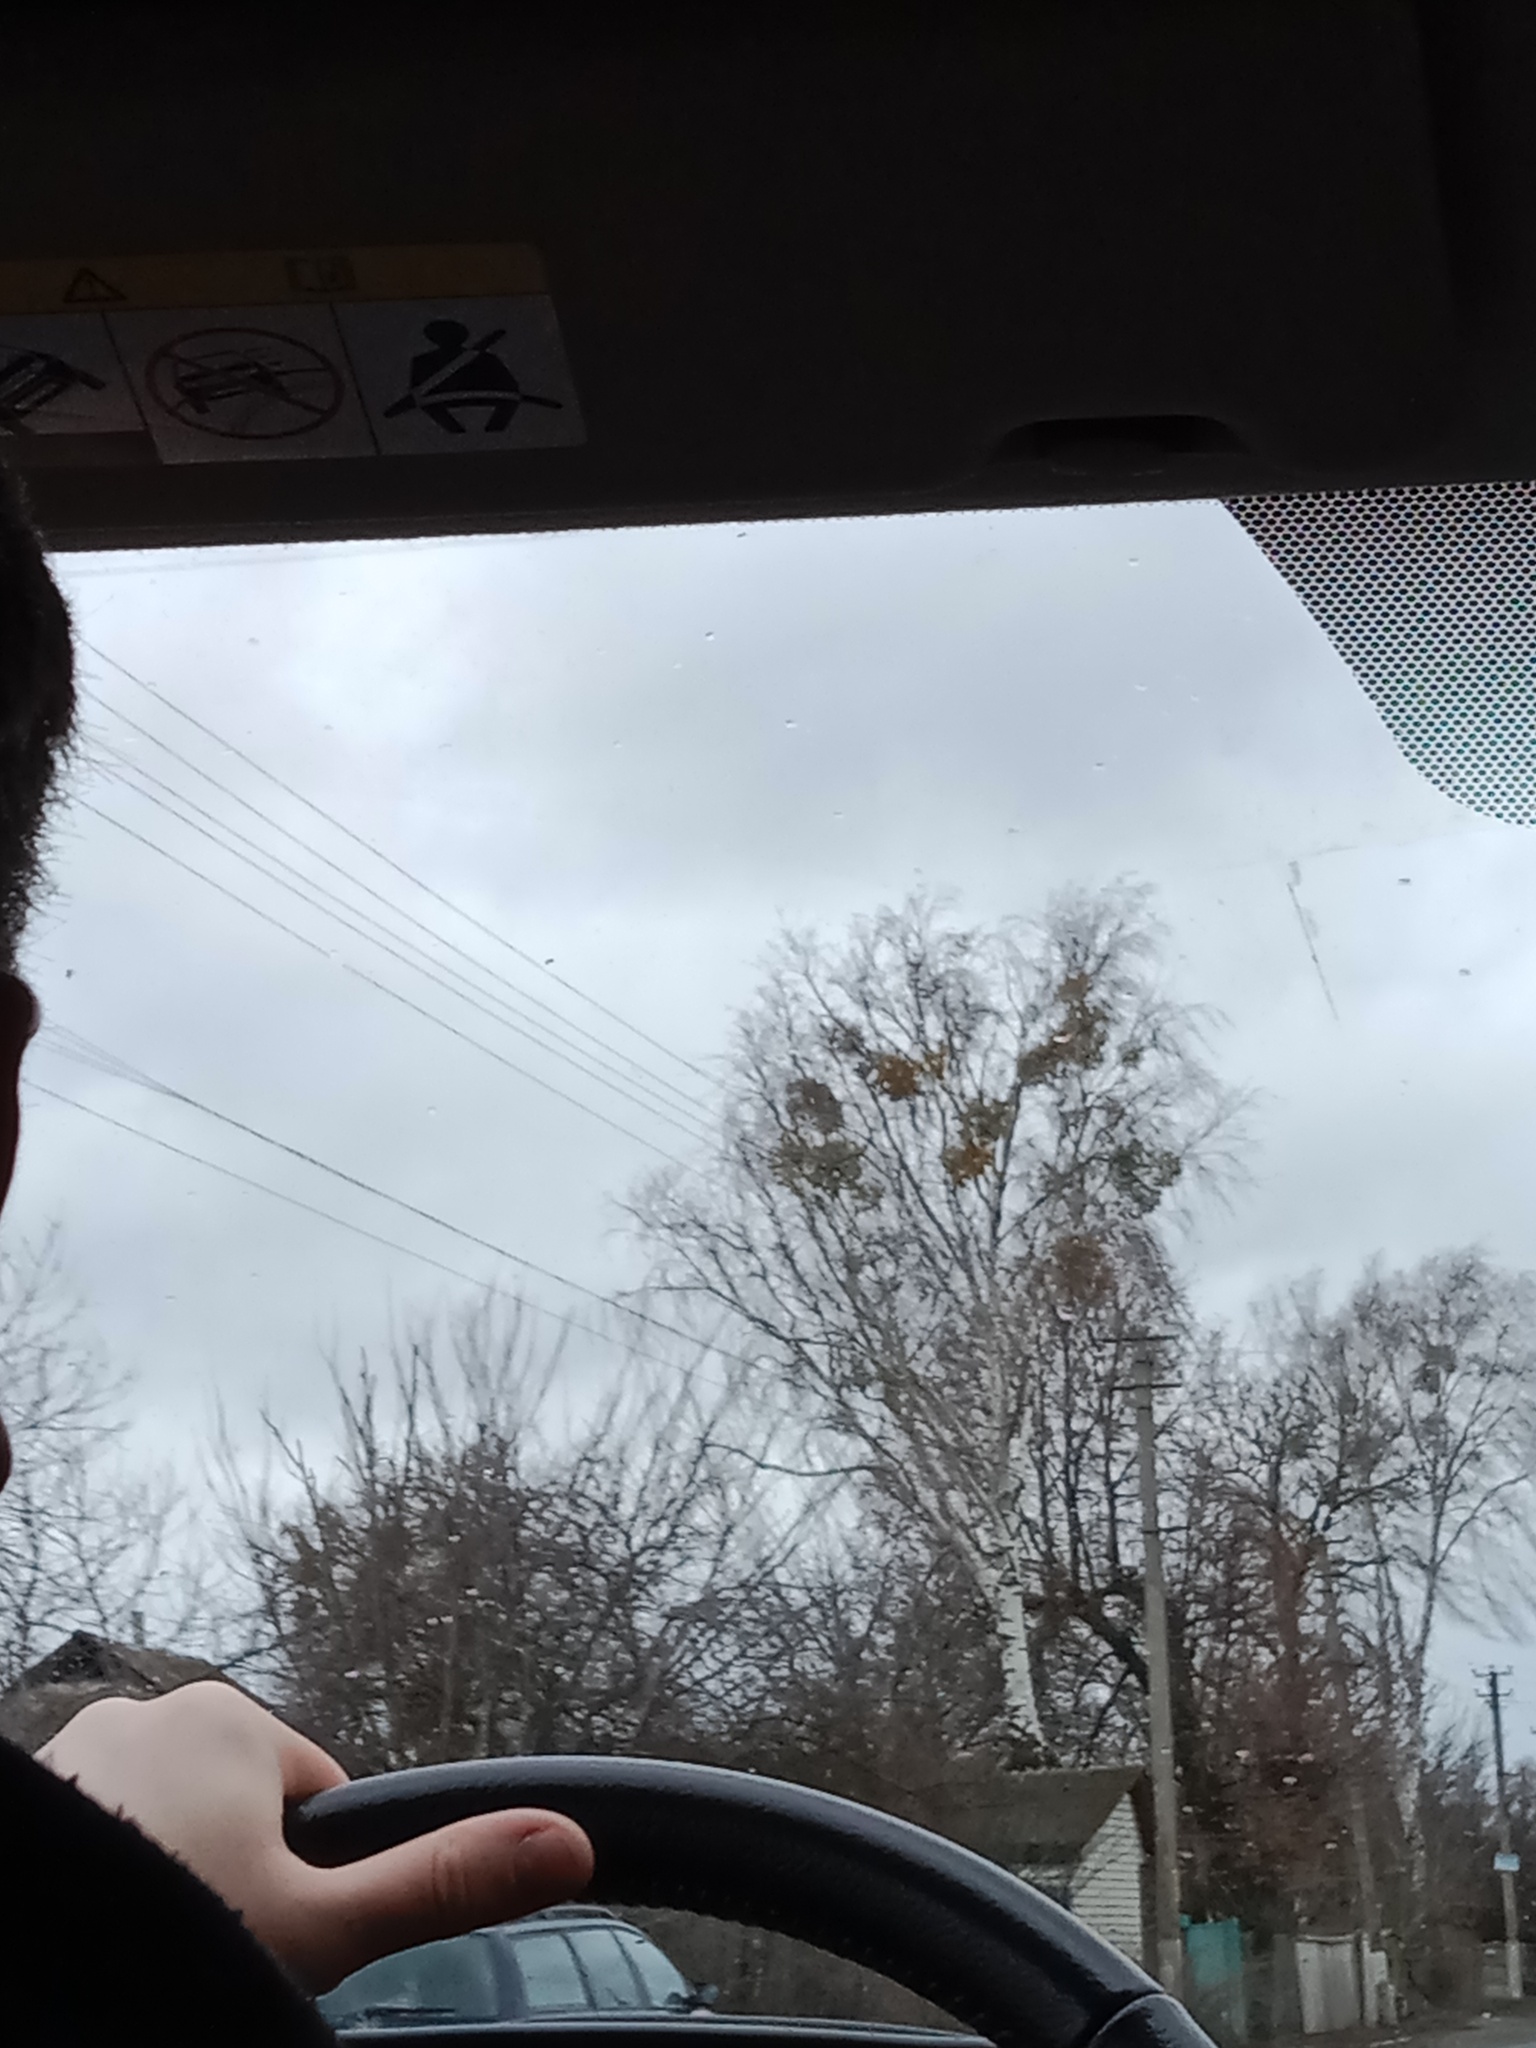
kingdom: Plantae
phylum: Tracheophyta
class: Magnoliopsida
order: Santalales
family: Viscaceae
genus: Viscum
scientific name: Viscum album
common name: Mistletoe
